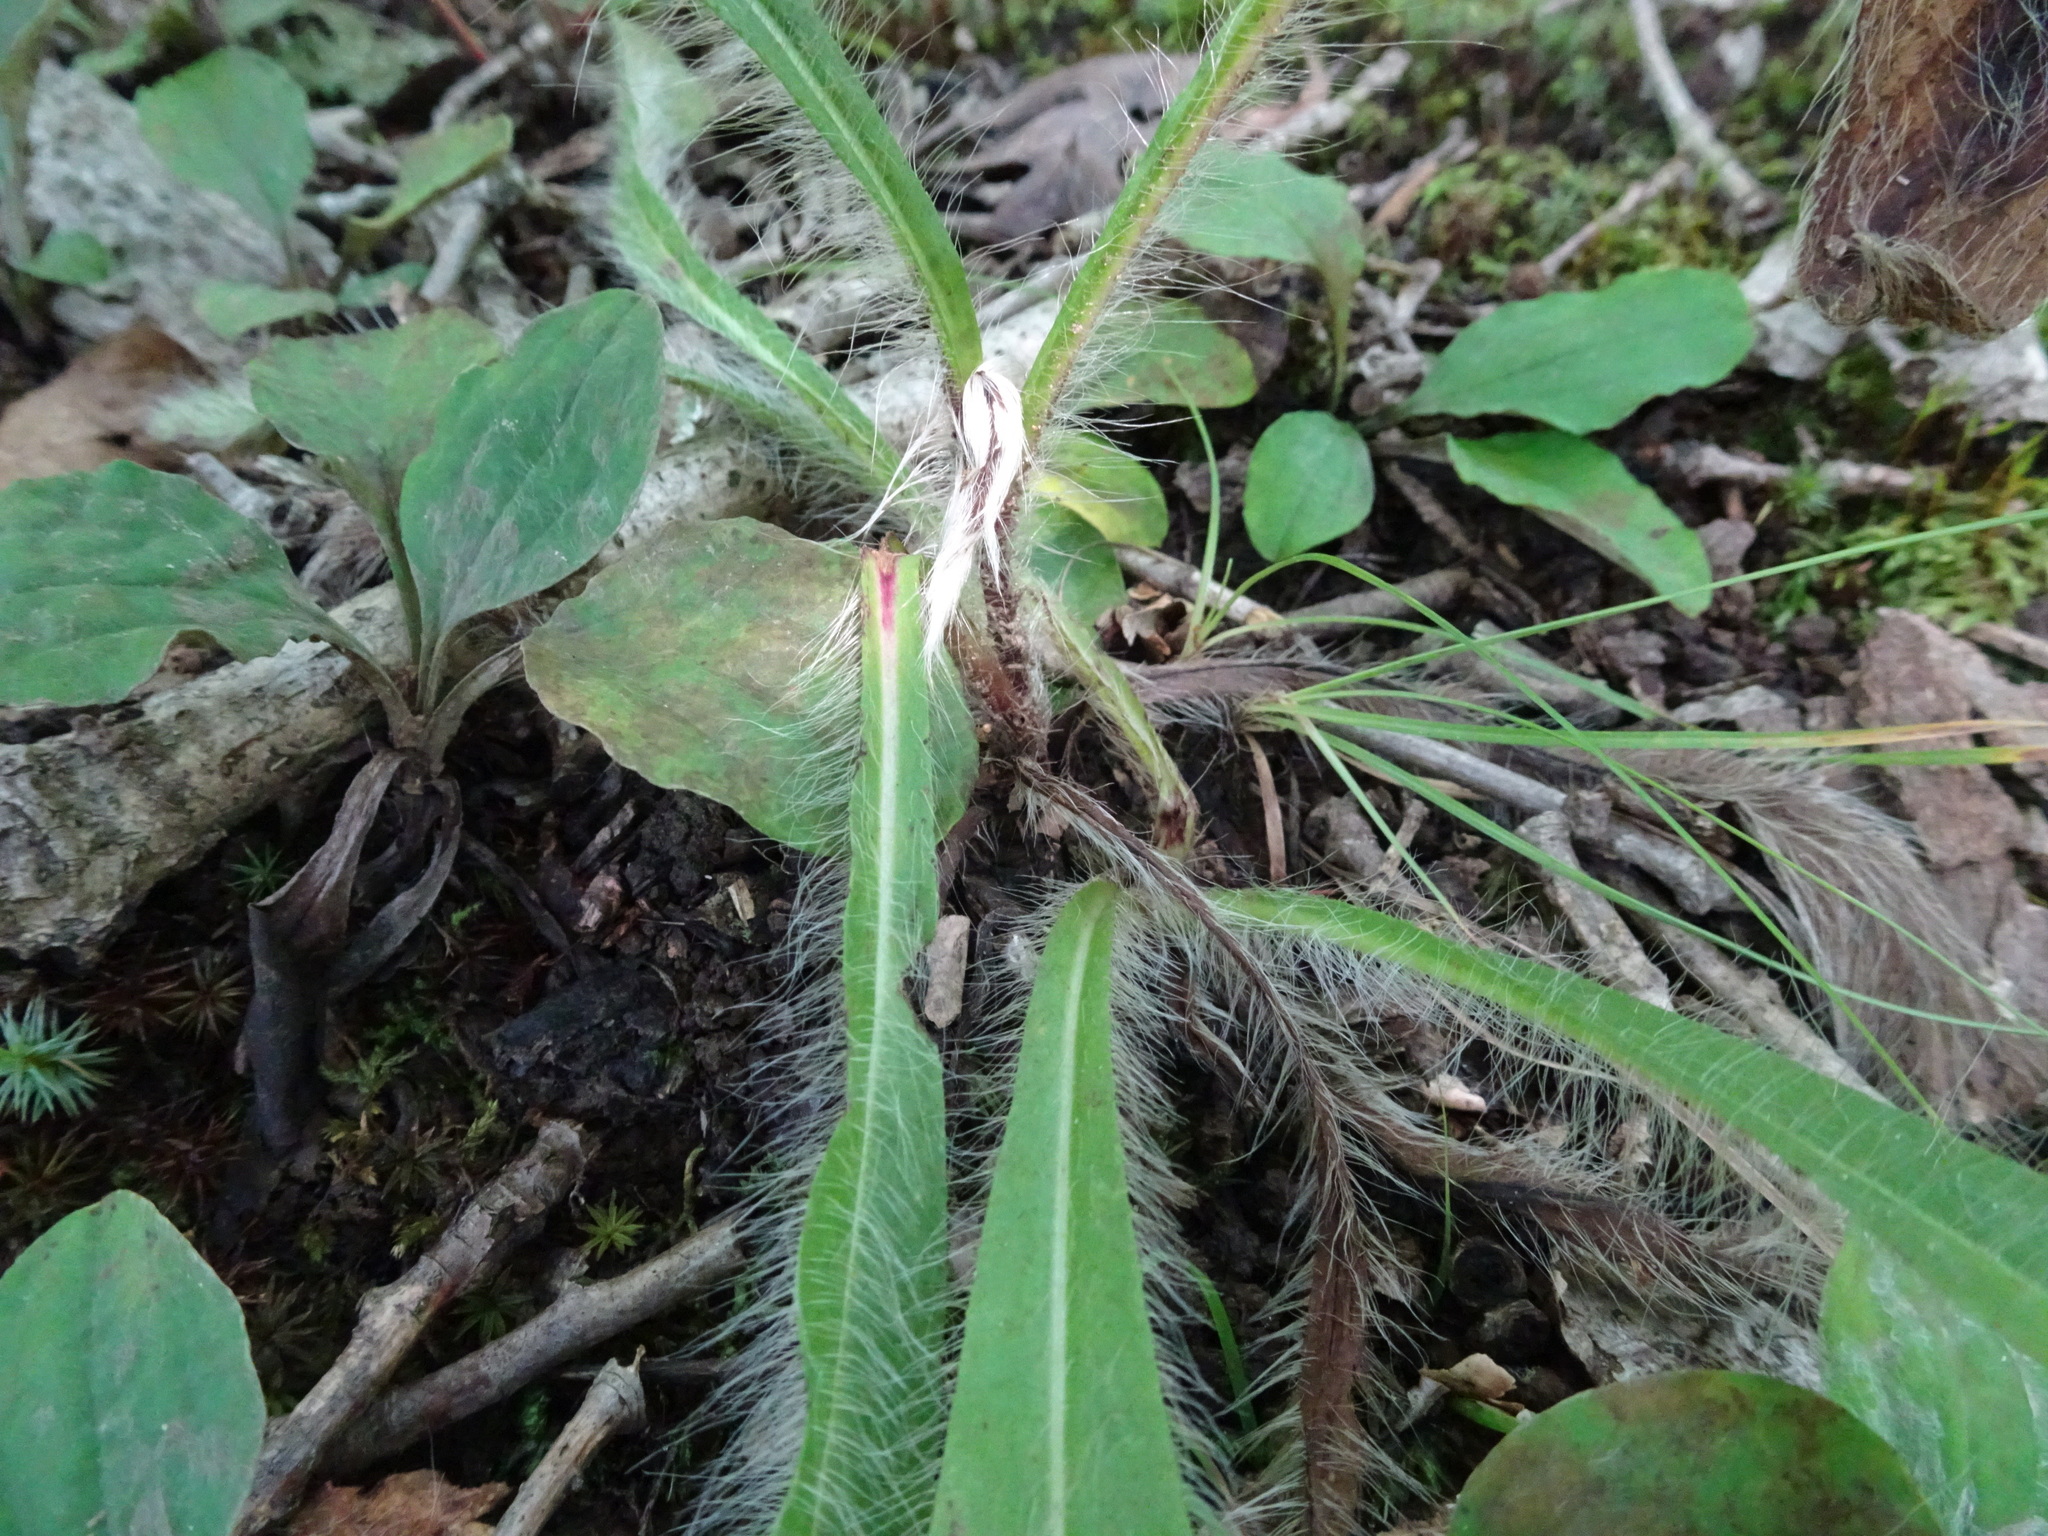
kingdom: Plantae
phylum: Tracheophyta
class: Magnoliopsida
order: Asterales
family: Asteraceae
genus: Hieracium
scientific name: Hieracium longipilum
